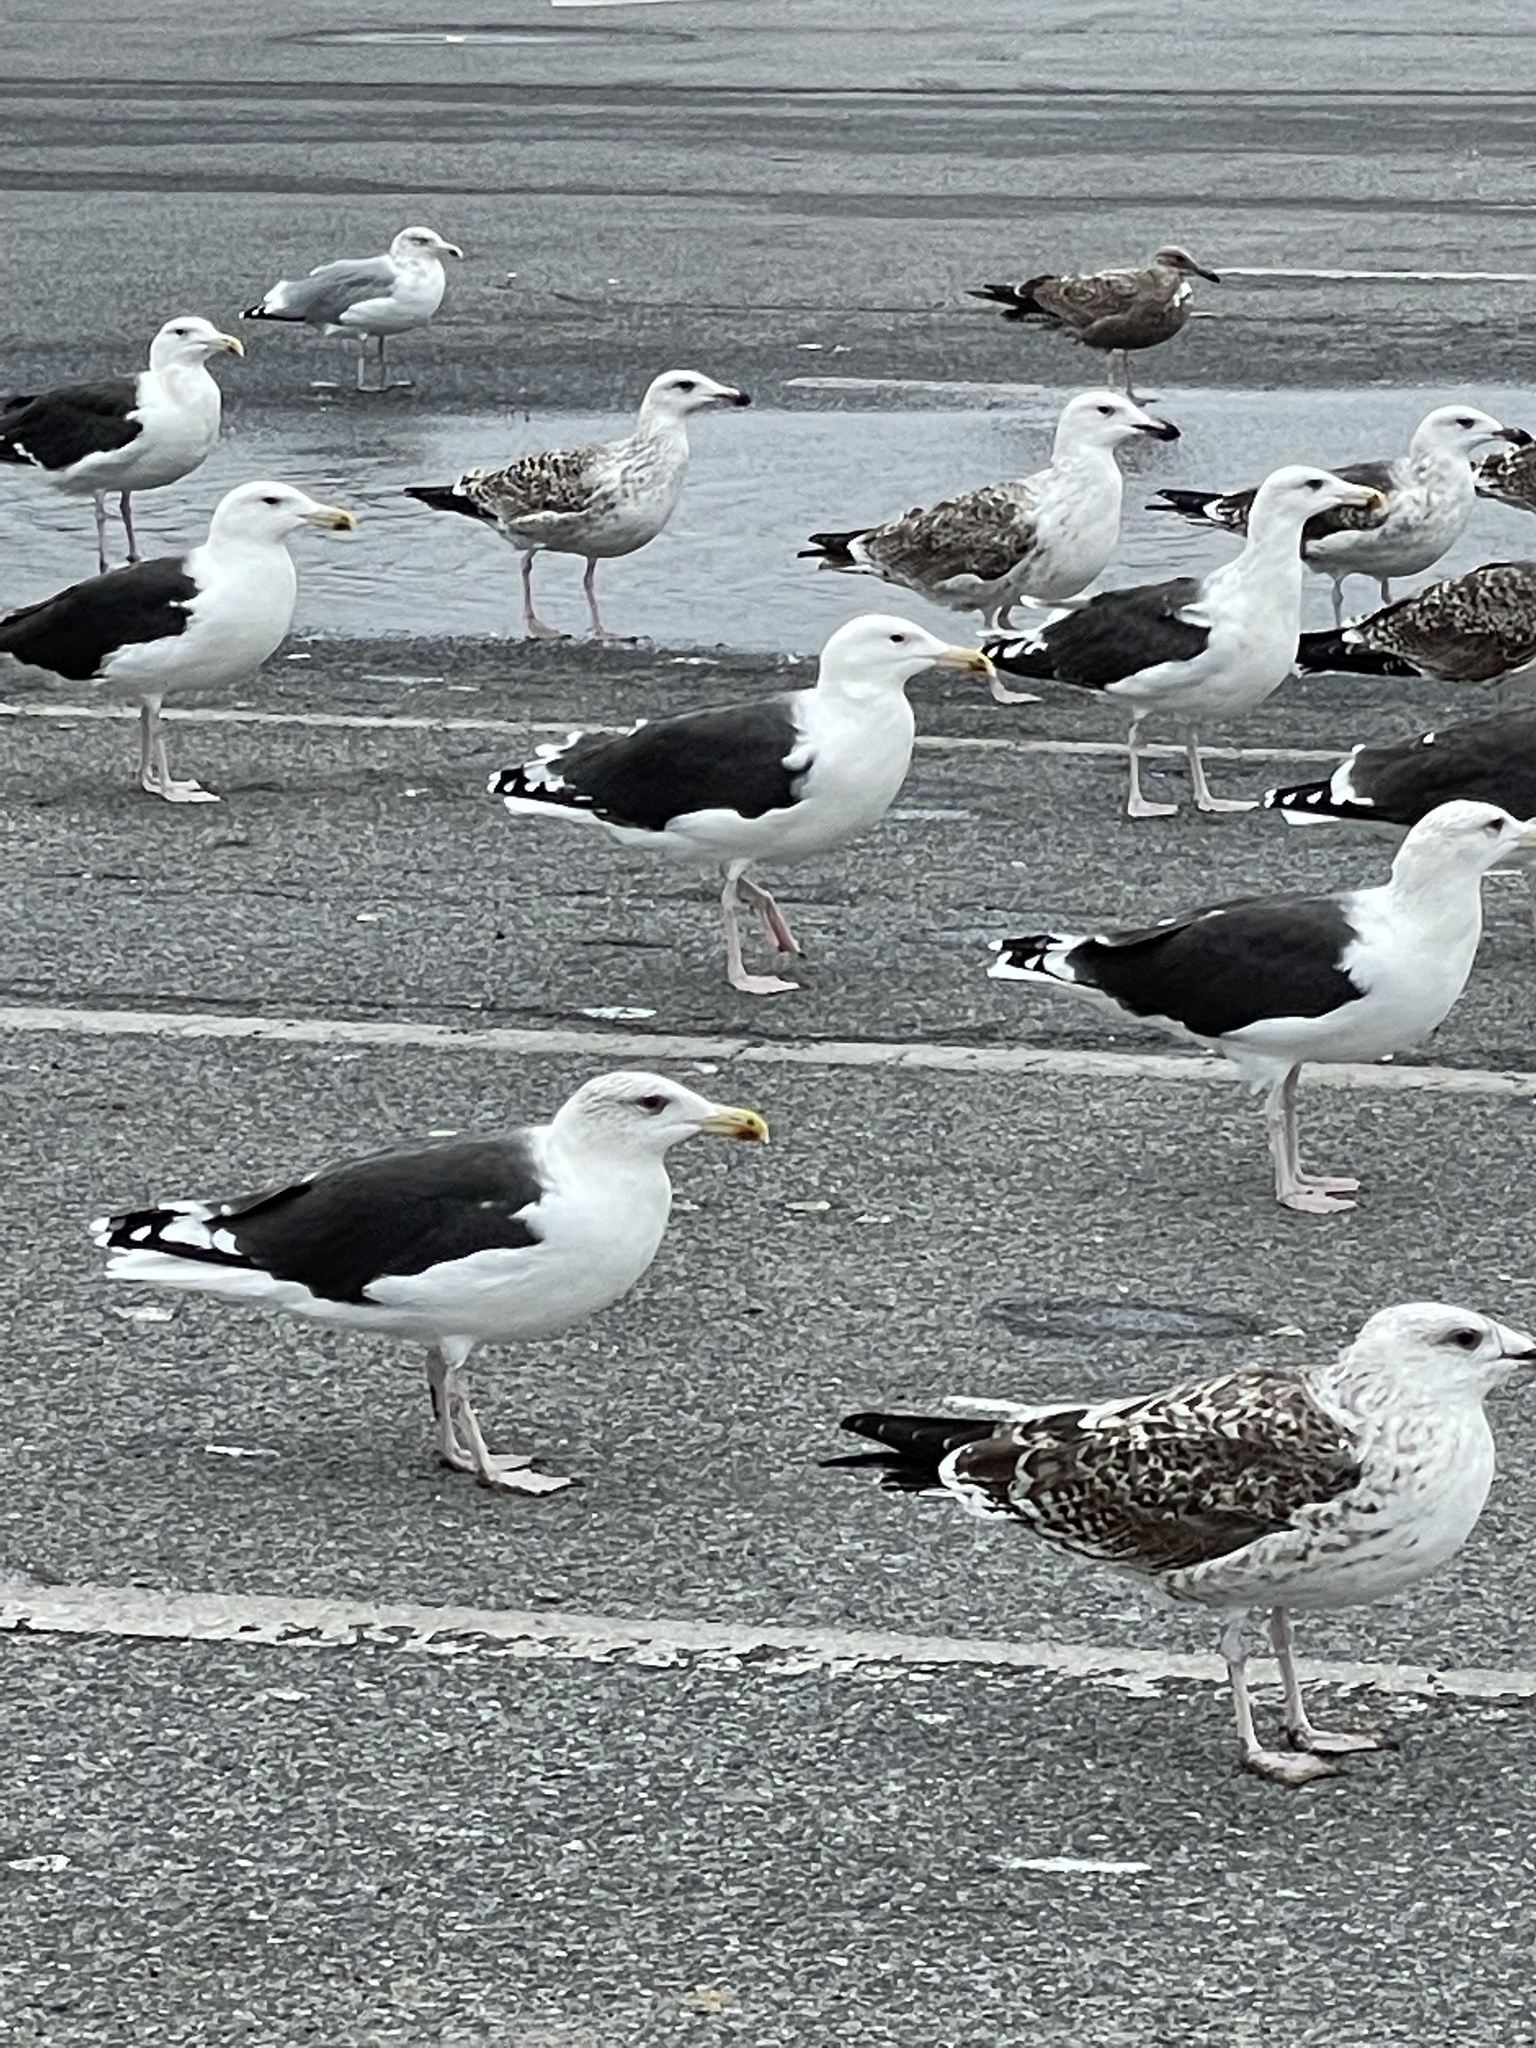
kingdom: Animalia
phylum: Chordata
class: Aves
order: Charadriiformes
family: Laridae
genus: Larus
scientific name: Larus marinus
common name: Great black-backed gull
